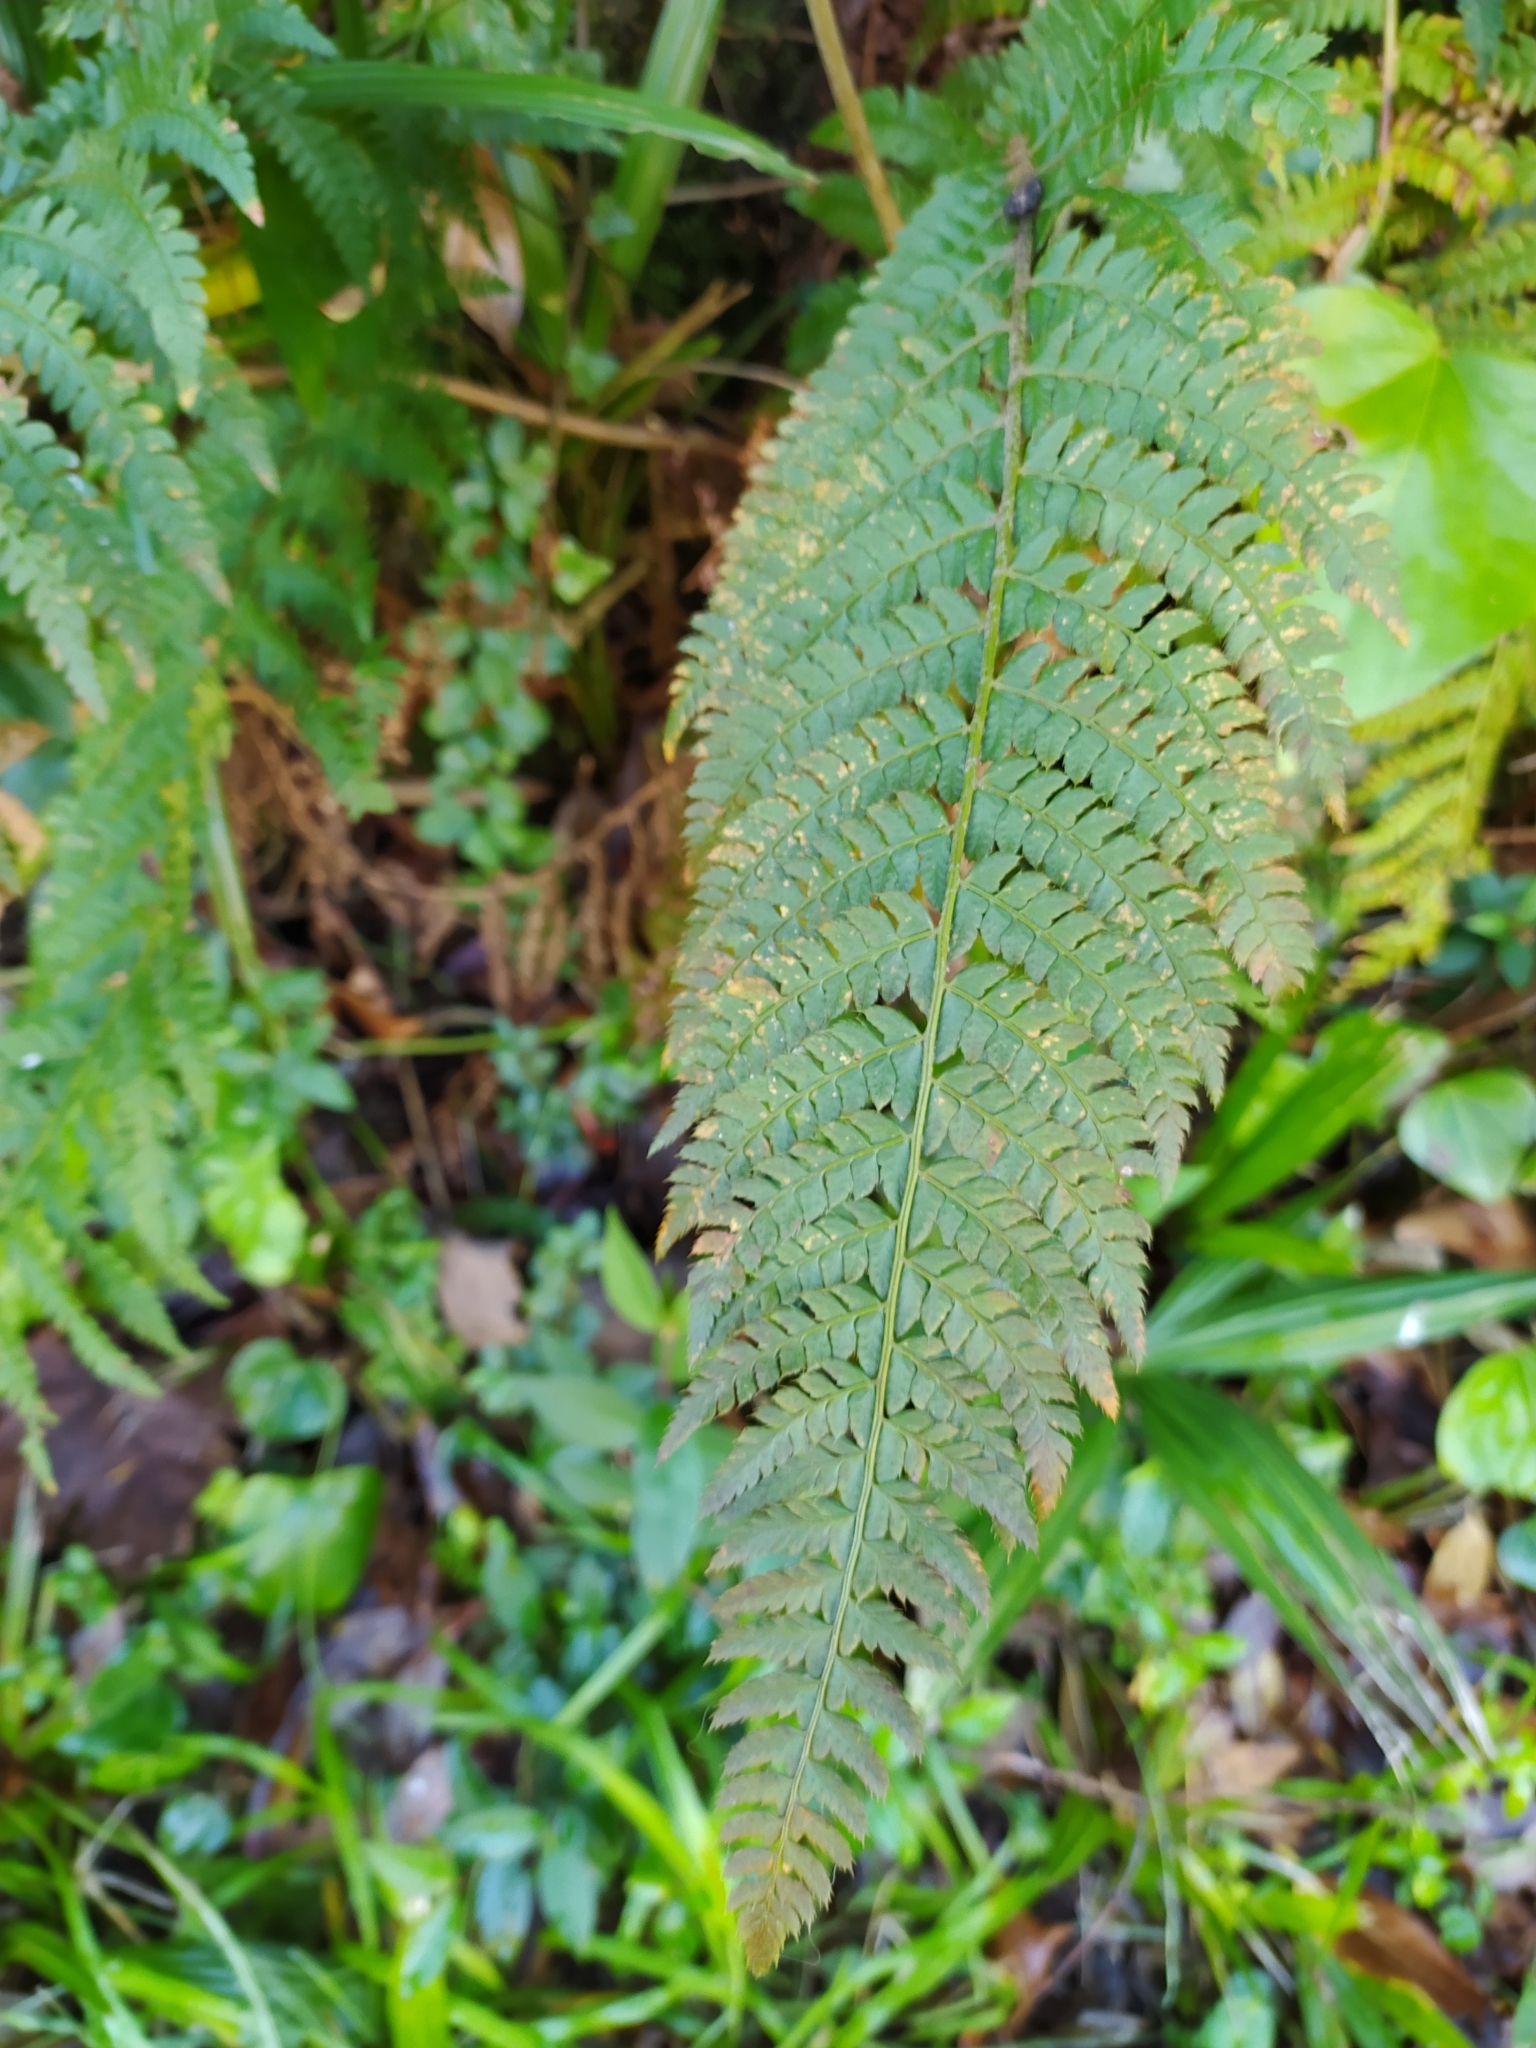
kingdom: Plantae
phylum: Tracheophyta
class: Polypodiopsida
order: Polypodiales
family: Dryopteridaceae
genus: Polystichum
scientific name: Polystichum setiferum
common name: Soft shield-fern
